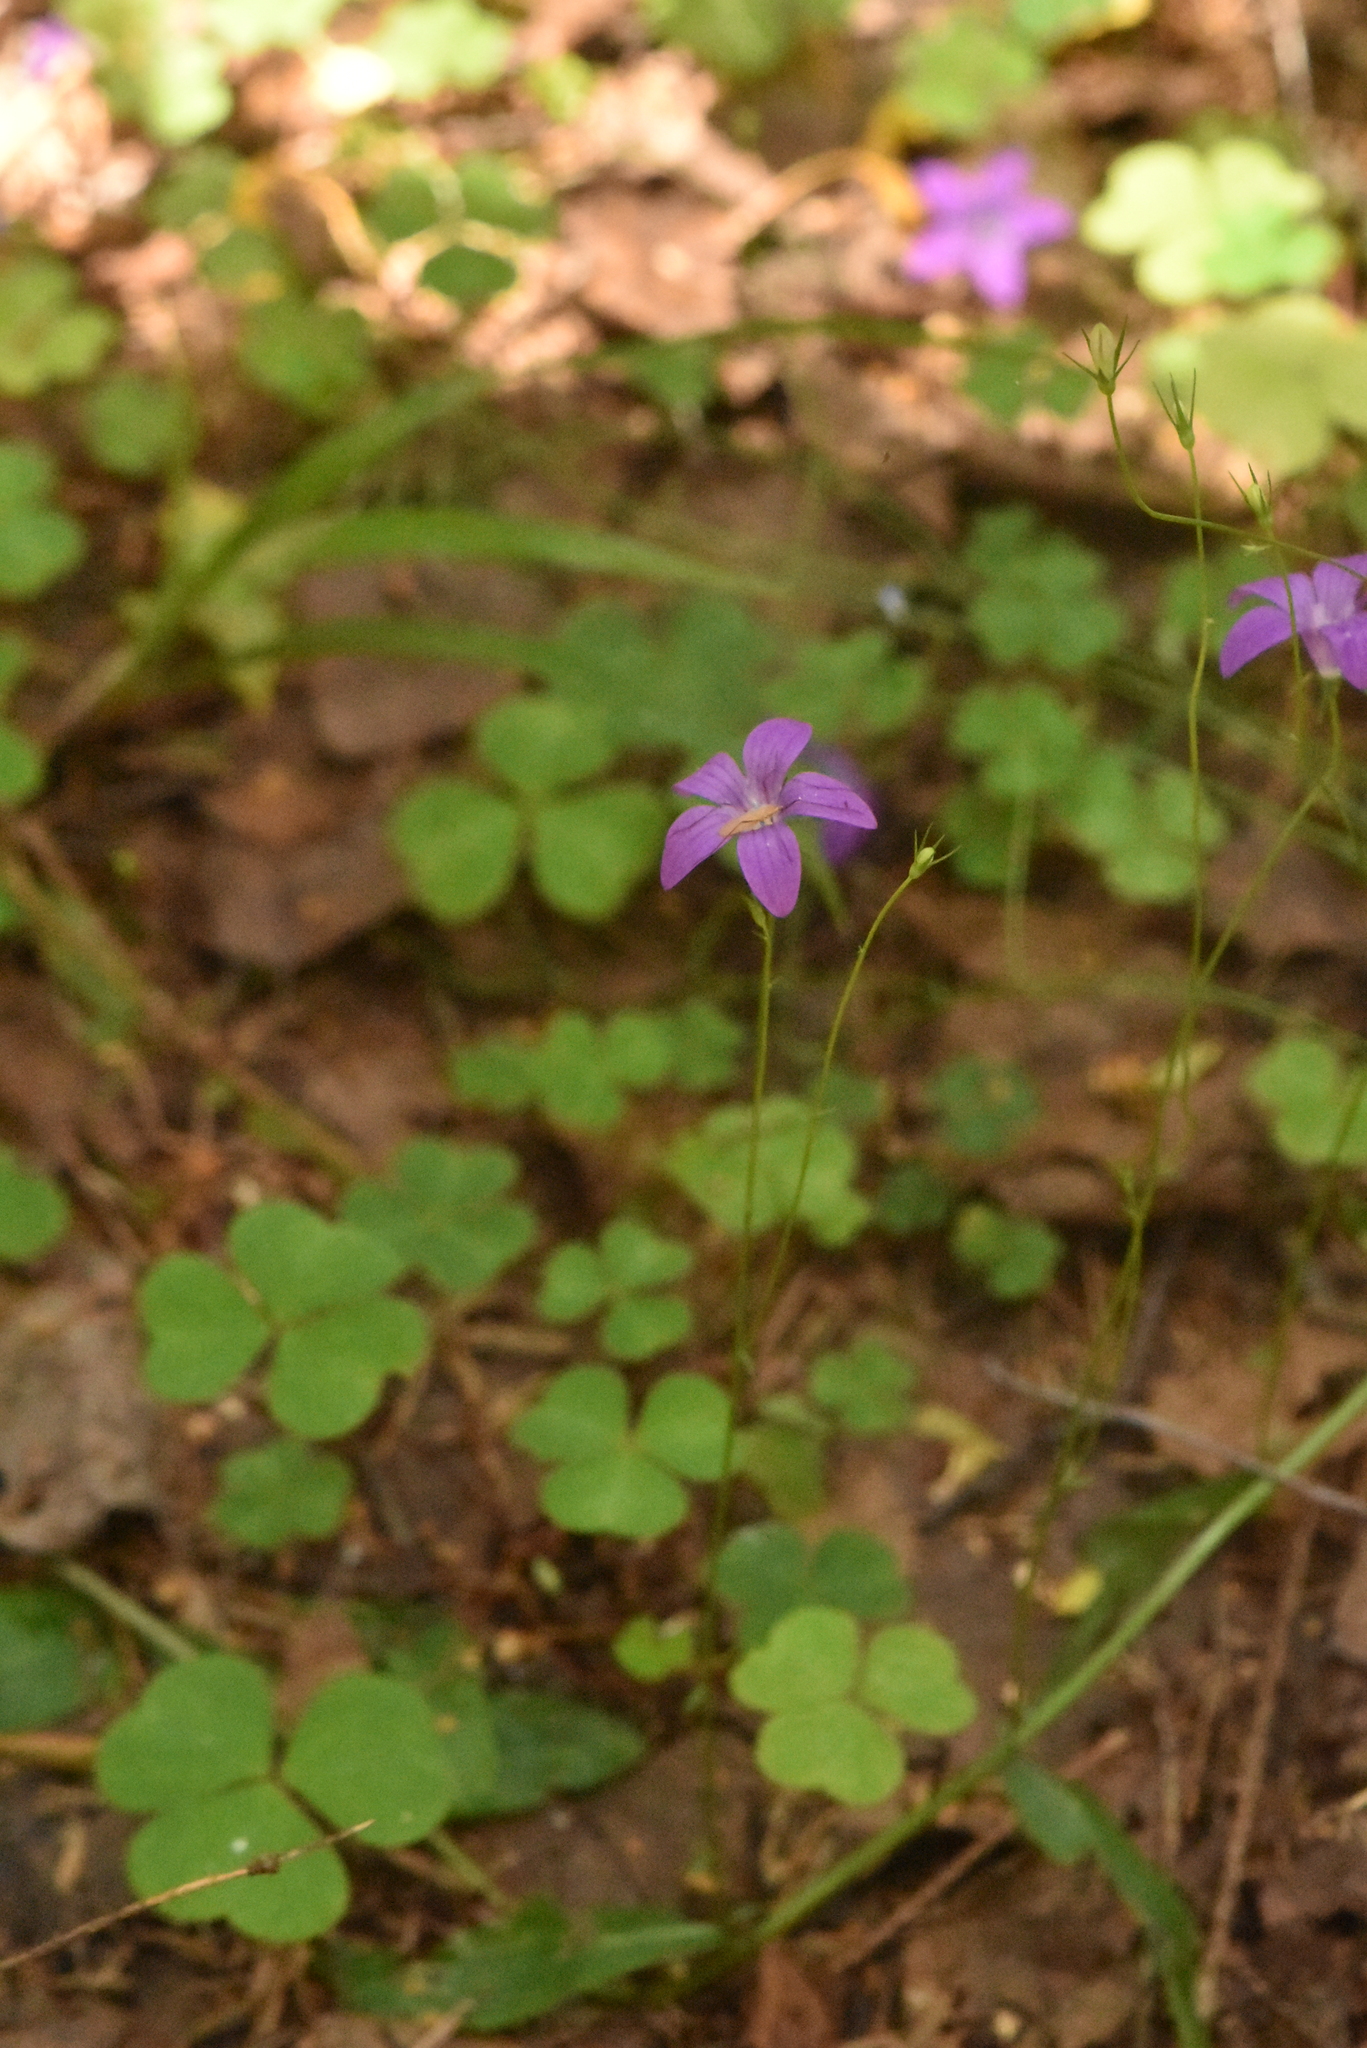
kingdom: Plantae
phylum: Tracheophyta
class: Magnoliopsida
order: Asterales
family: Campanulaceae
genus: Campanula
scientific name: Campanula patula
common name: Spreading bellflower
